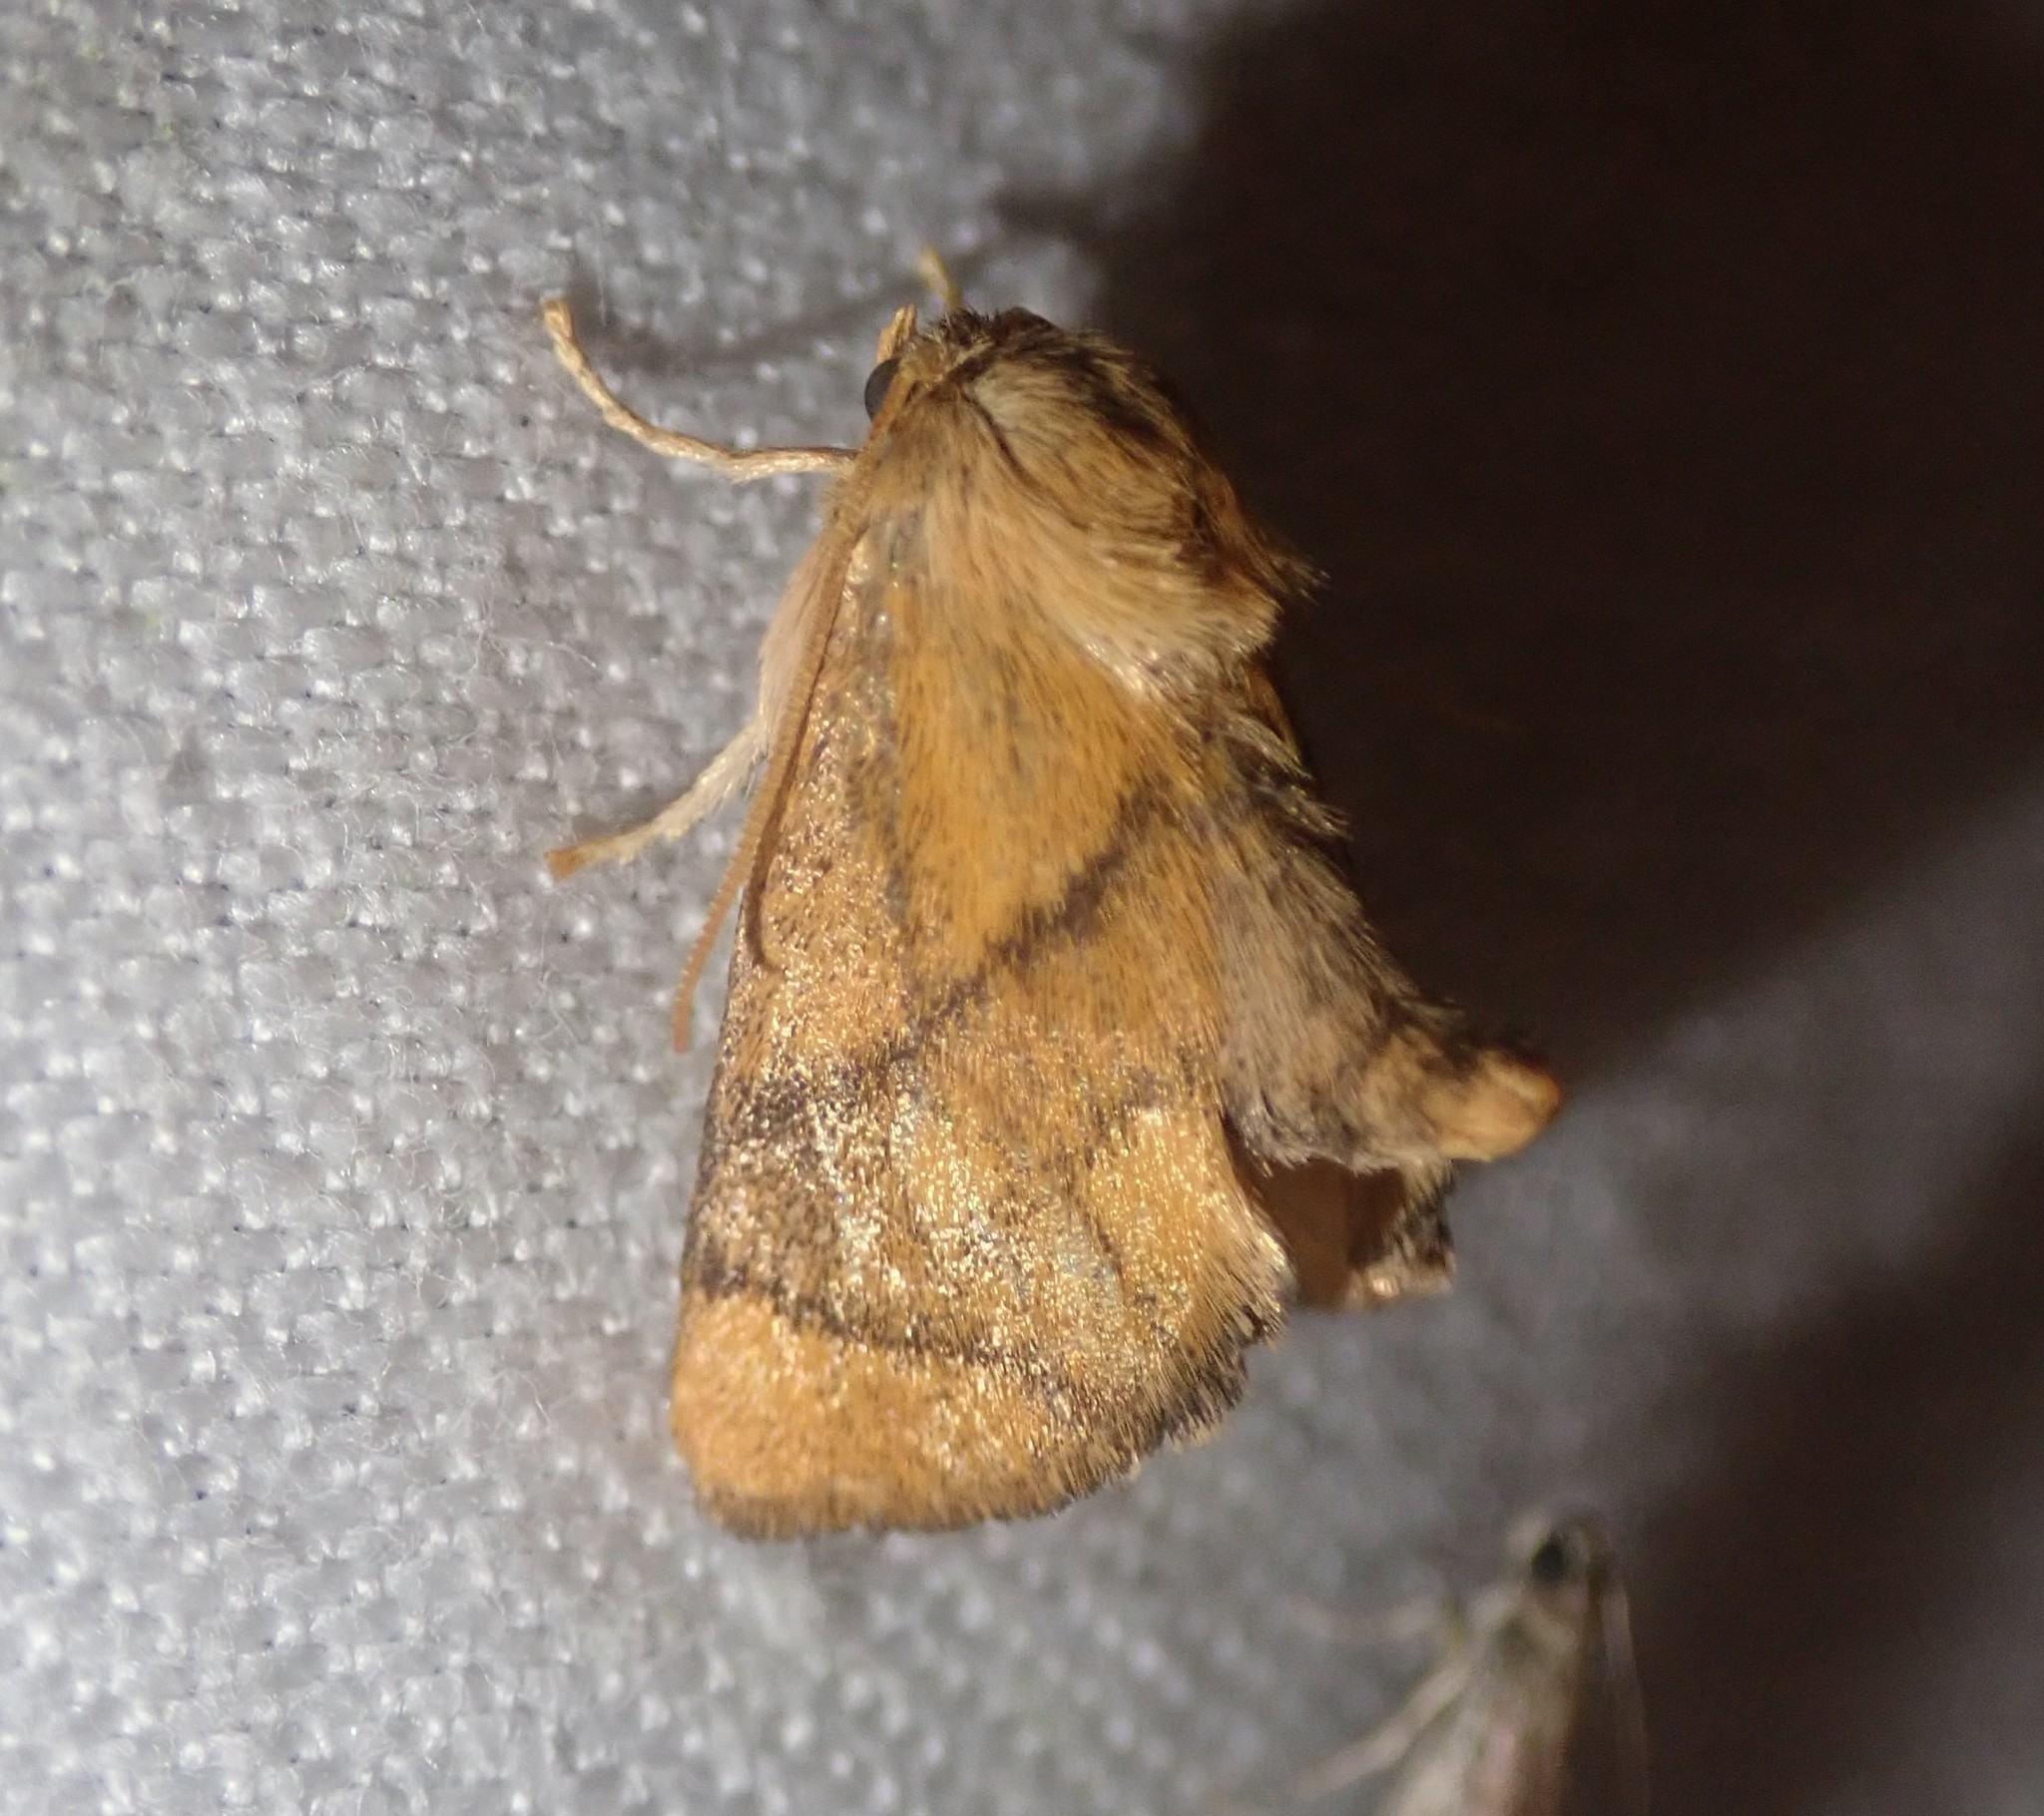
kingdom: Animalia
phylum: Arthropoda
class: Insecta
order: Lepidoptera
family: Limacodidae
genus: Apoda
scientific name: Apoda limacodes
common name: Festoon
